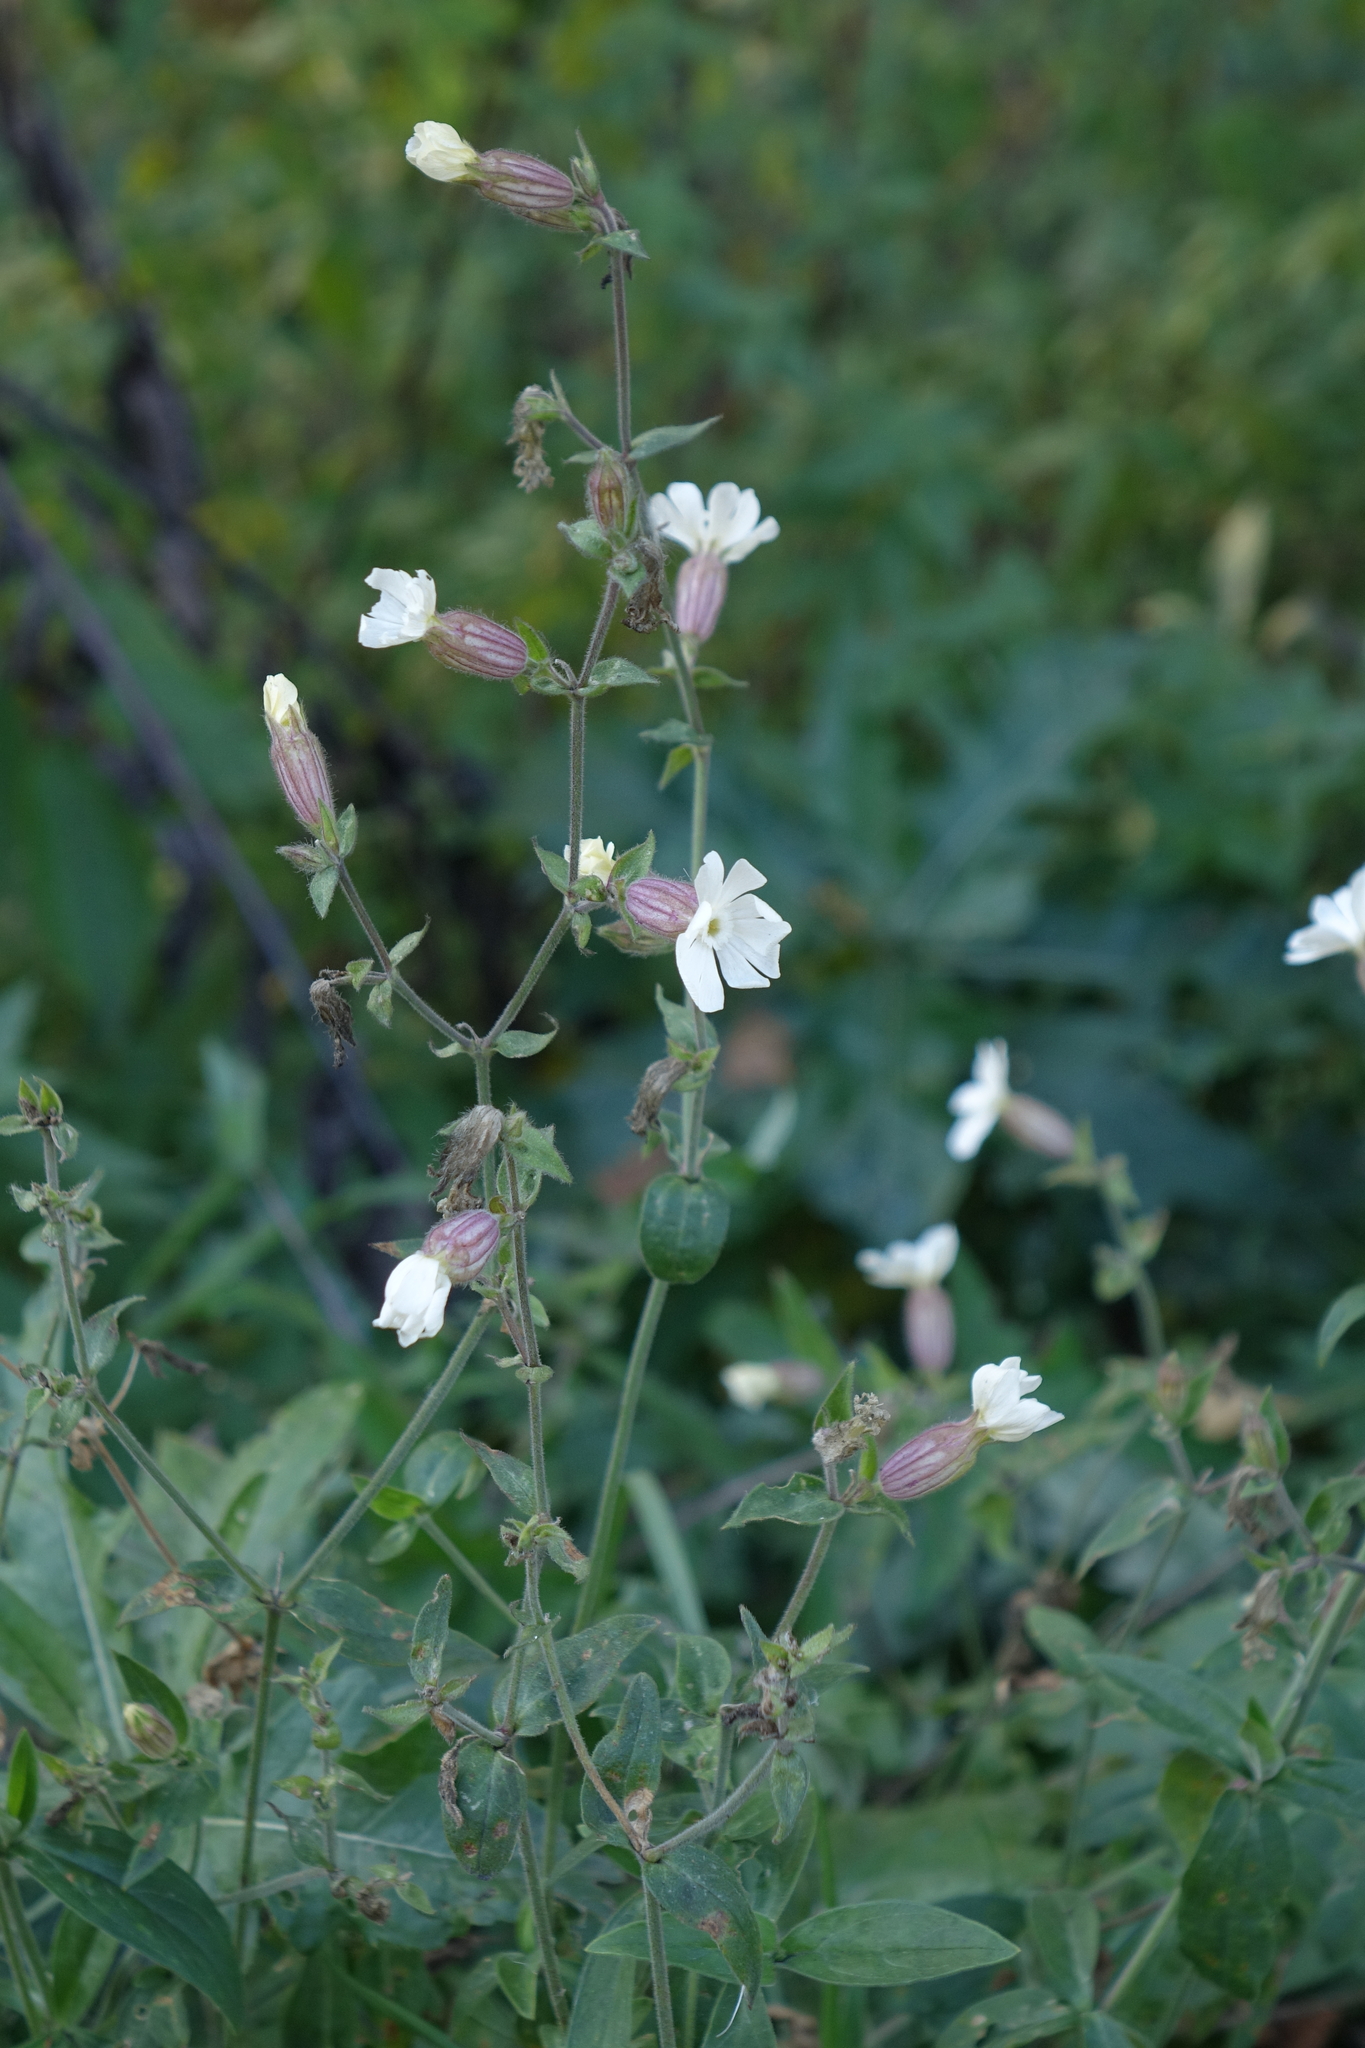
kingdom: Plantae
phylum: Tracheophyta
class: Magnoliopsida
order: Caryophyllales
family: Caryophyllaceae
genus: Silene
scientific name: Silene latifolia
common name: White campion
